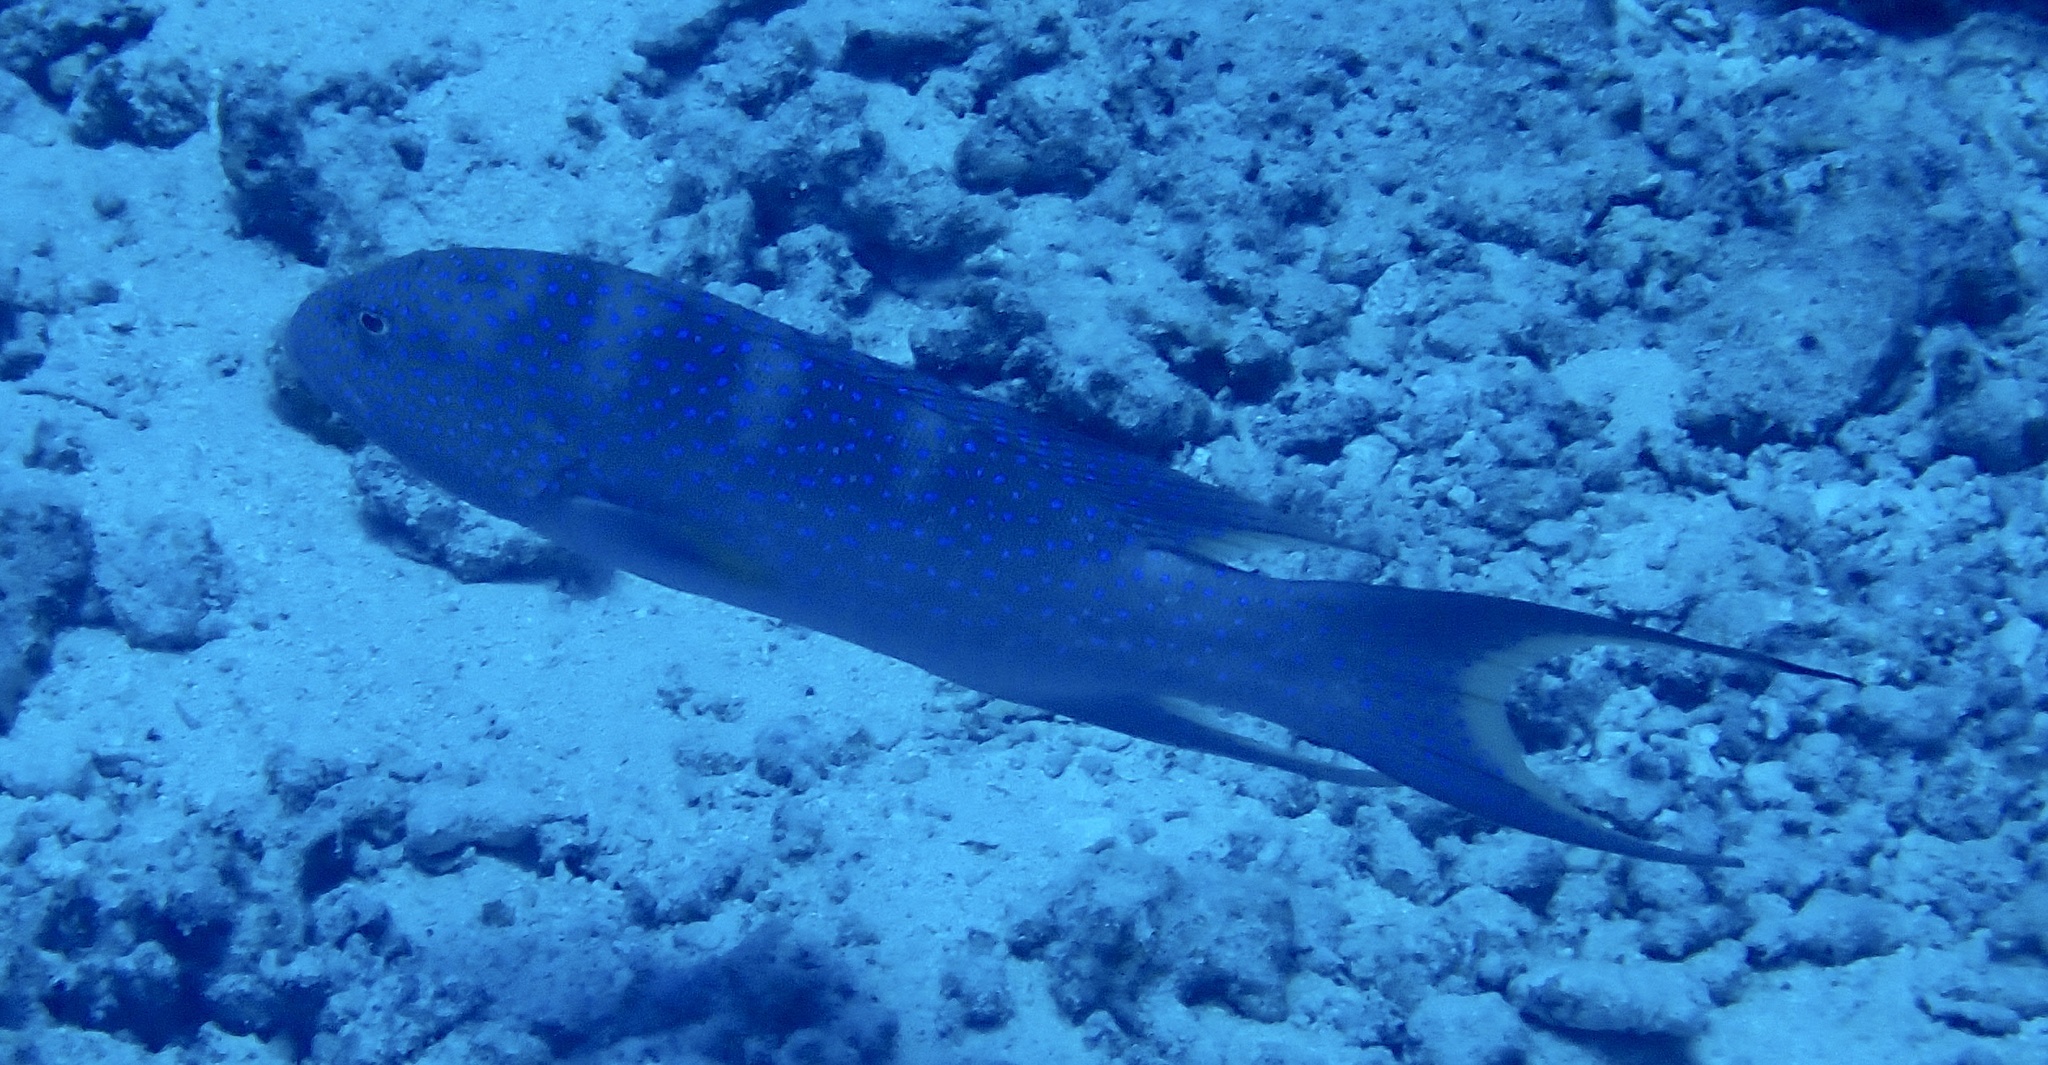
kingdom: Animalia
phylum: Chordata
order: Perciformes
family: Serranidae
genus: Variola
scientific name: Variola louti
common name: Yellow-edged lyretail
